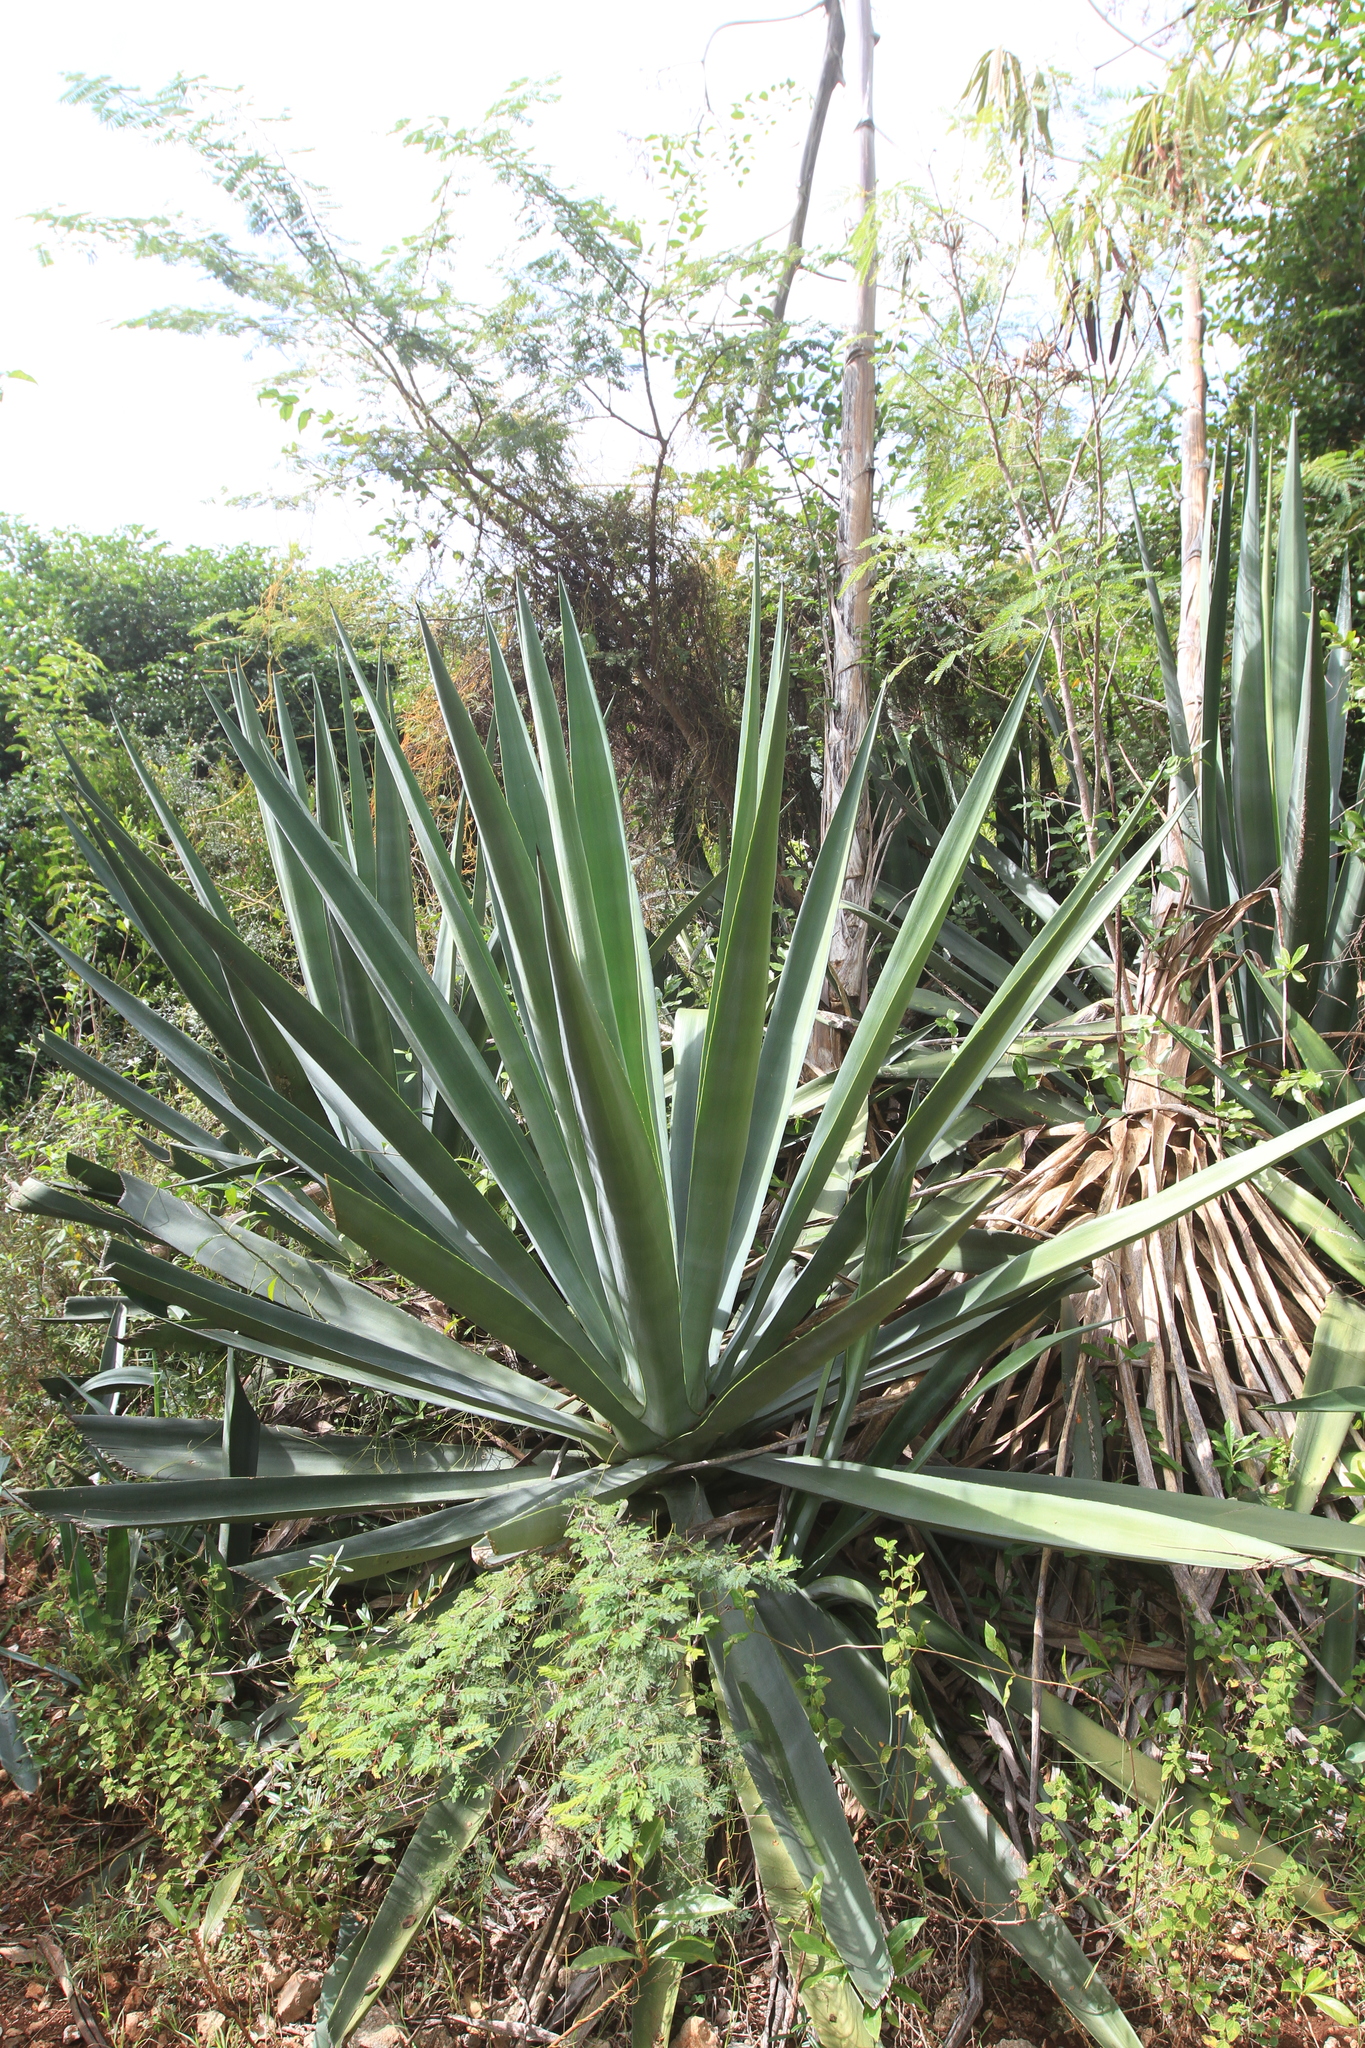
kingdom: Plantae
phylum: Tracheophyta
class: Liliopsida
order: Asparagales
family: Asparagaceae
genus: Agave
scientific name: Agave sisalana
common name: Sisal hemp
